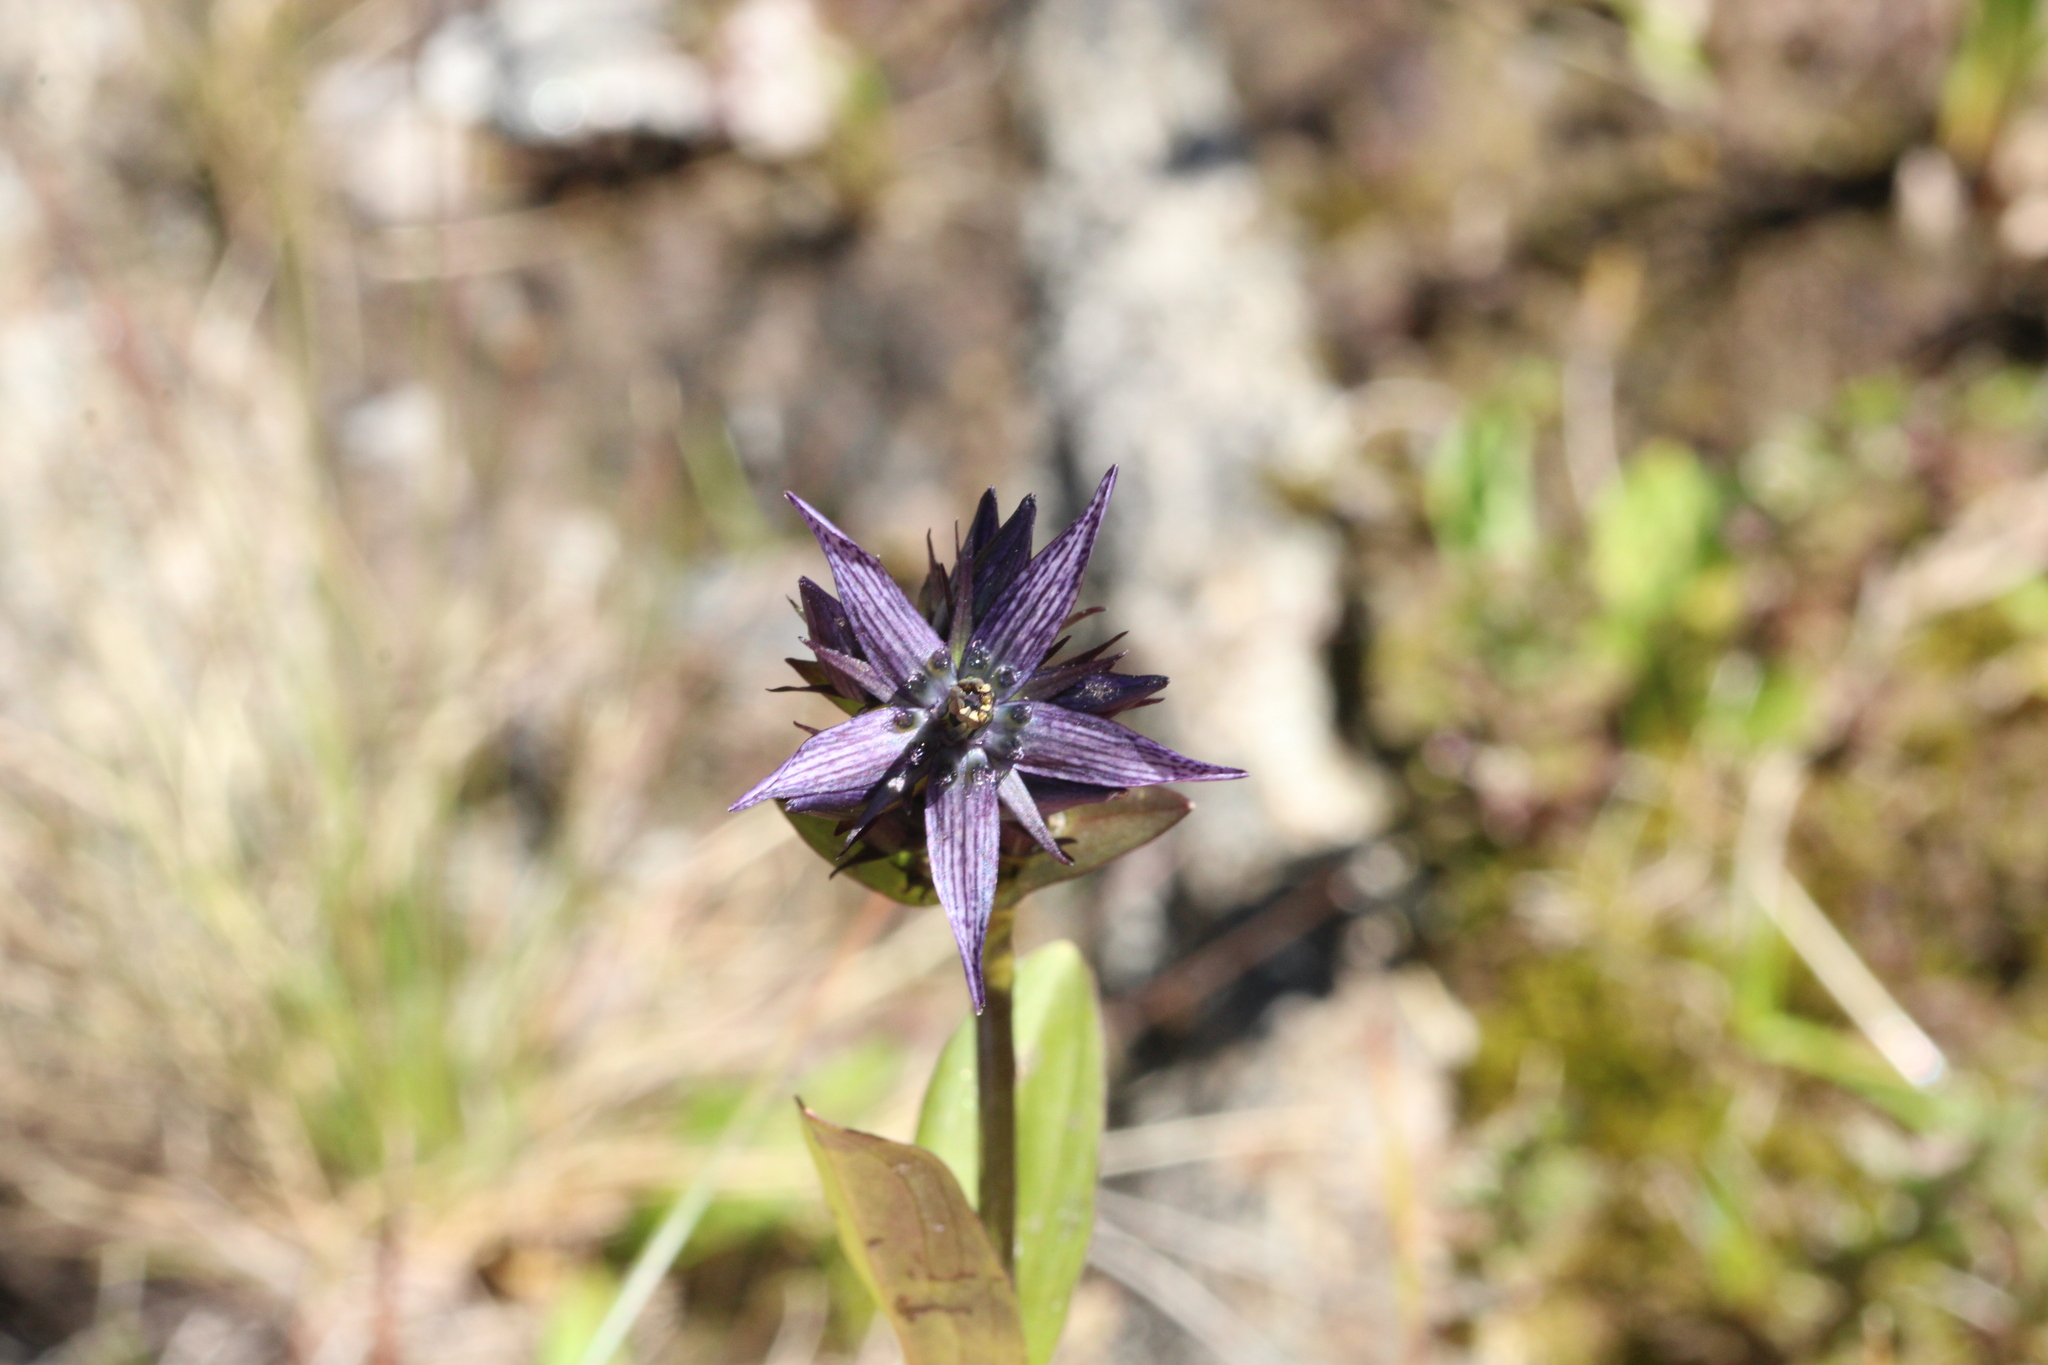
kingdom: Plantae
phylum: Tracheophyta
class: Magnoliopsida
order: Gentianales
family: Gentianaceae
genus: Swertia
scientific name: Swertia perennis
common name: Alpine bog swertia
